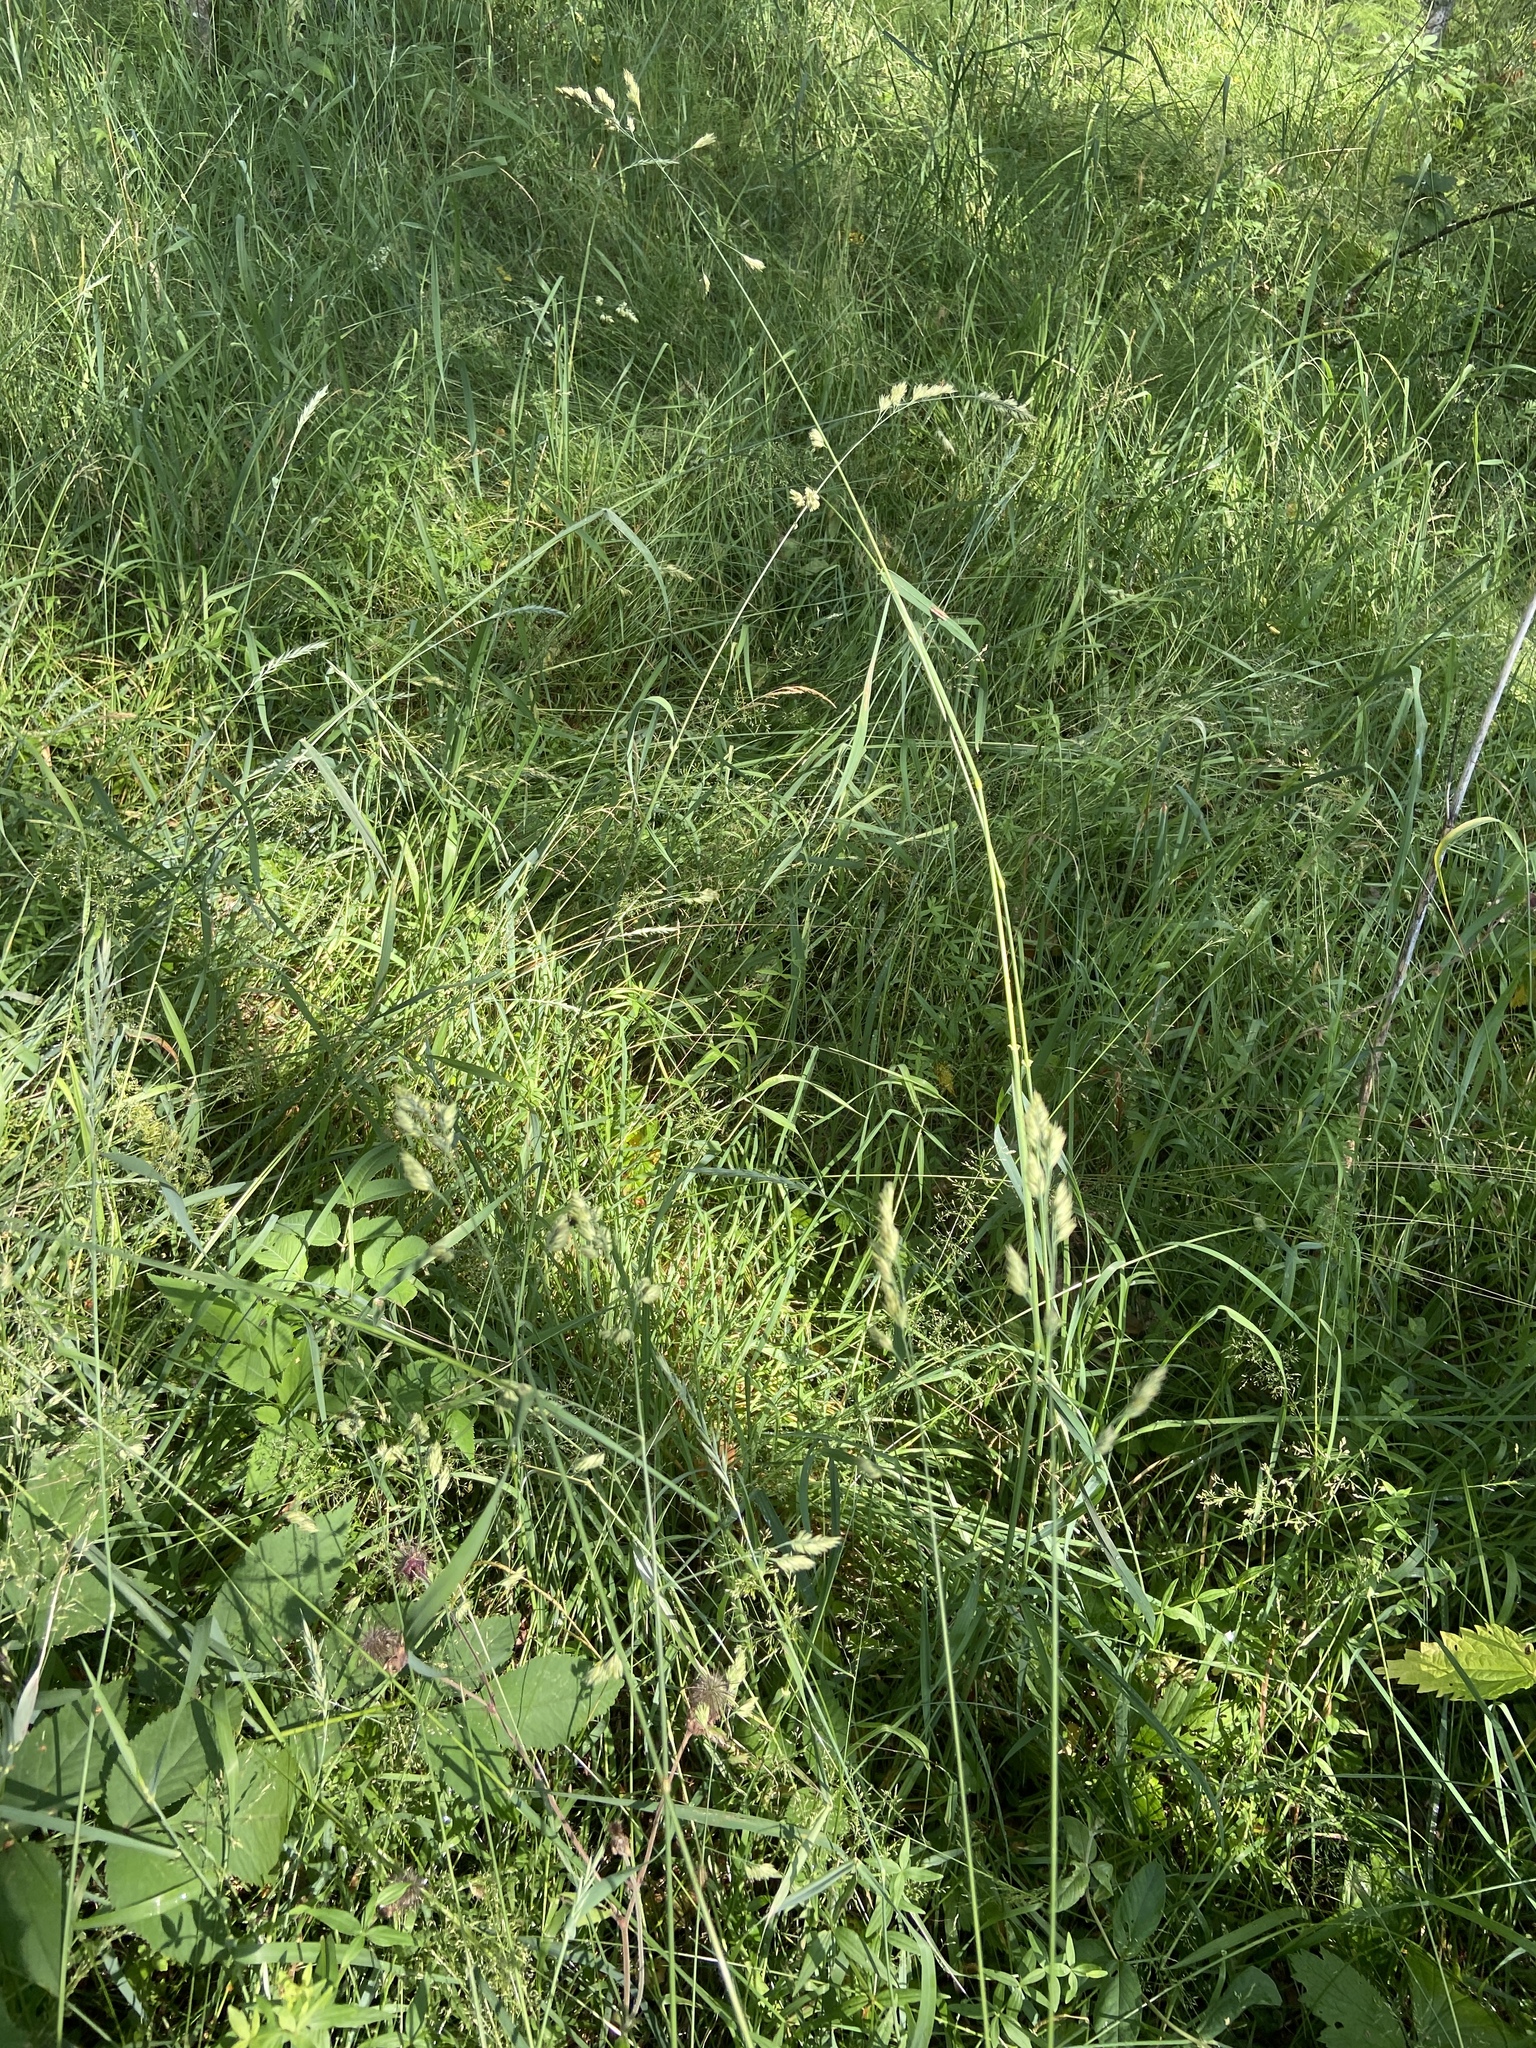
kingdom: Plantae
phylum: Tracheophyta
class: Liliopsida
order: Poales
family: Poaceae
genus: Dactylis
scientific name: Dactylis glomerata
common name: Orchardgrass
